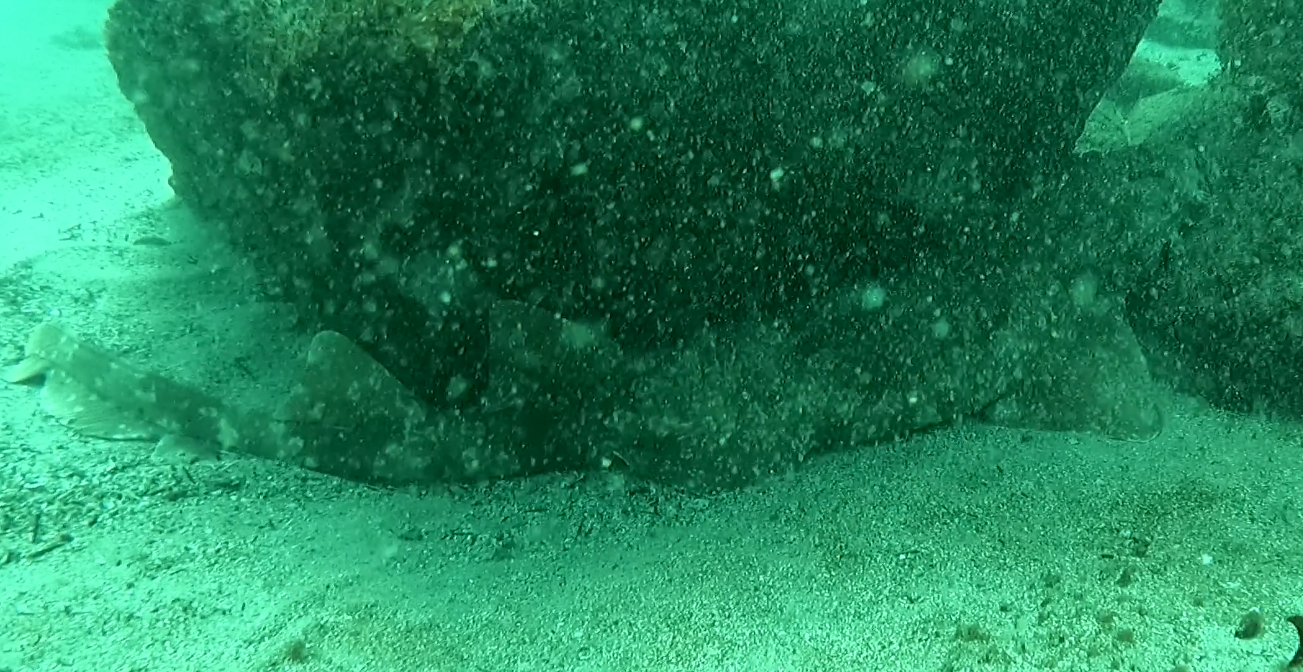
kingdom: Animalia
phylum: Chordata
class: Elasmobranchii
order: Orectolobiformes
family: Orectolobidae
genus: Orectolobus
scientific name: Orectolobus maculatus
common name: Spotted wobbegong
